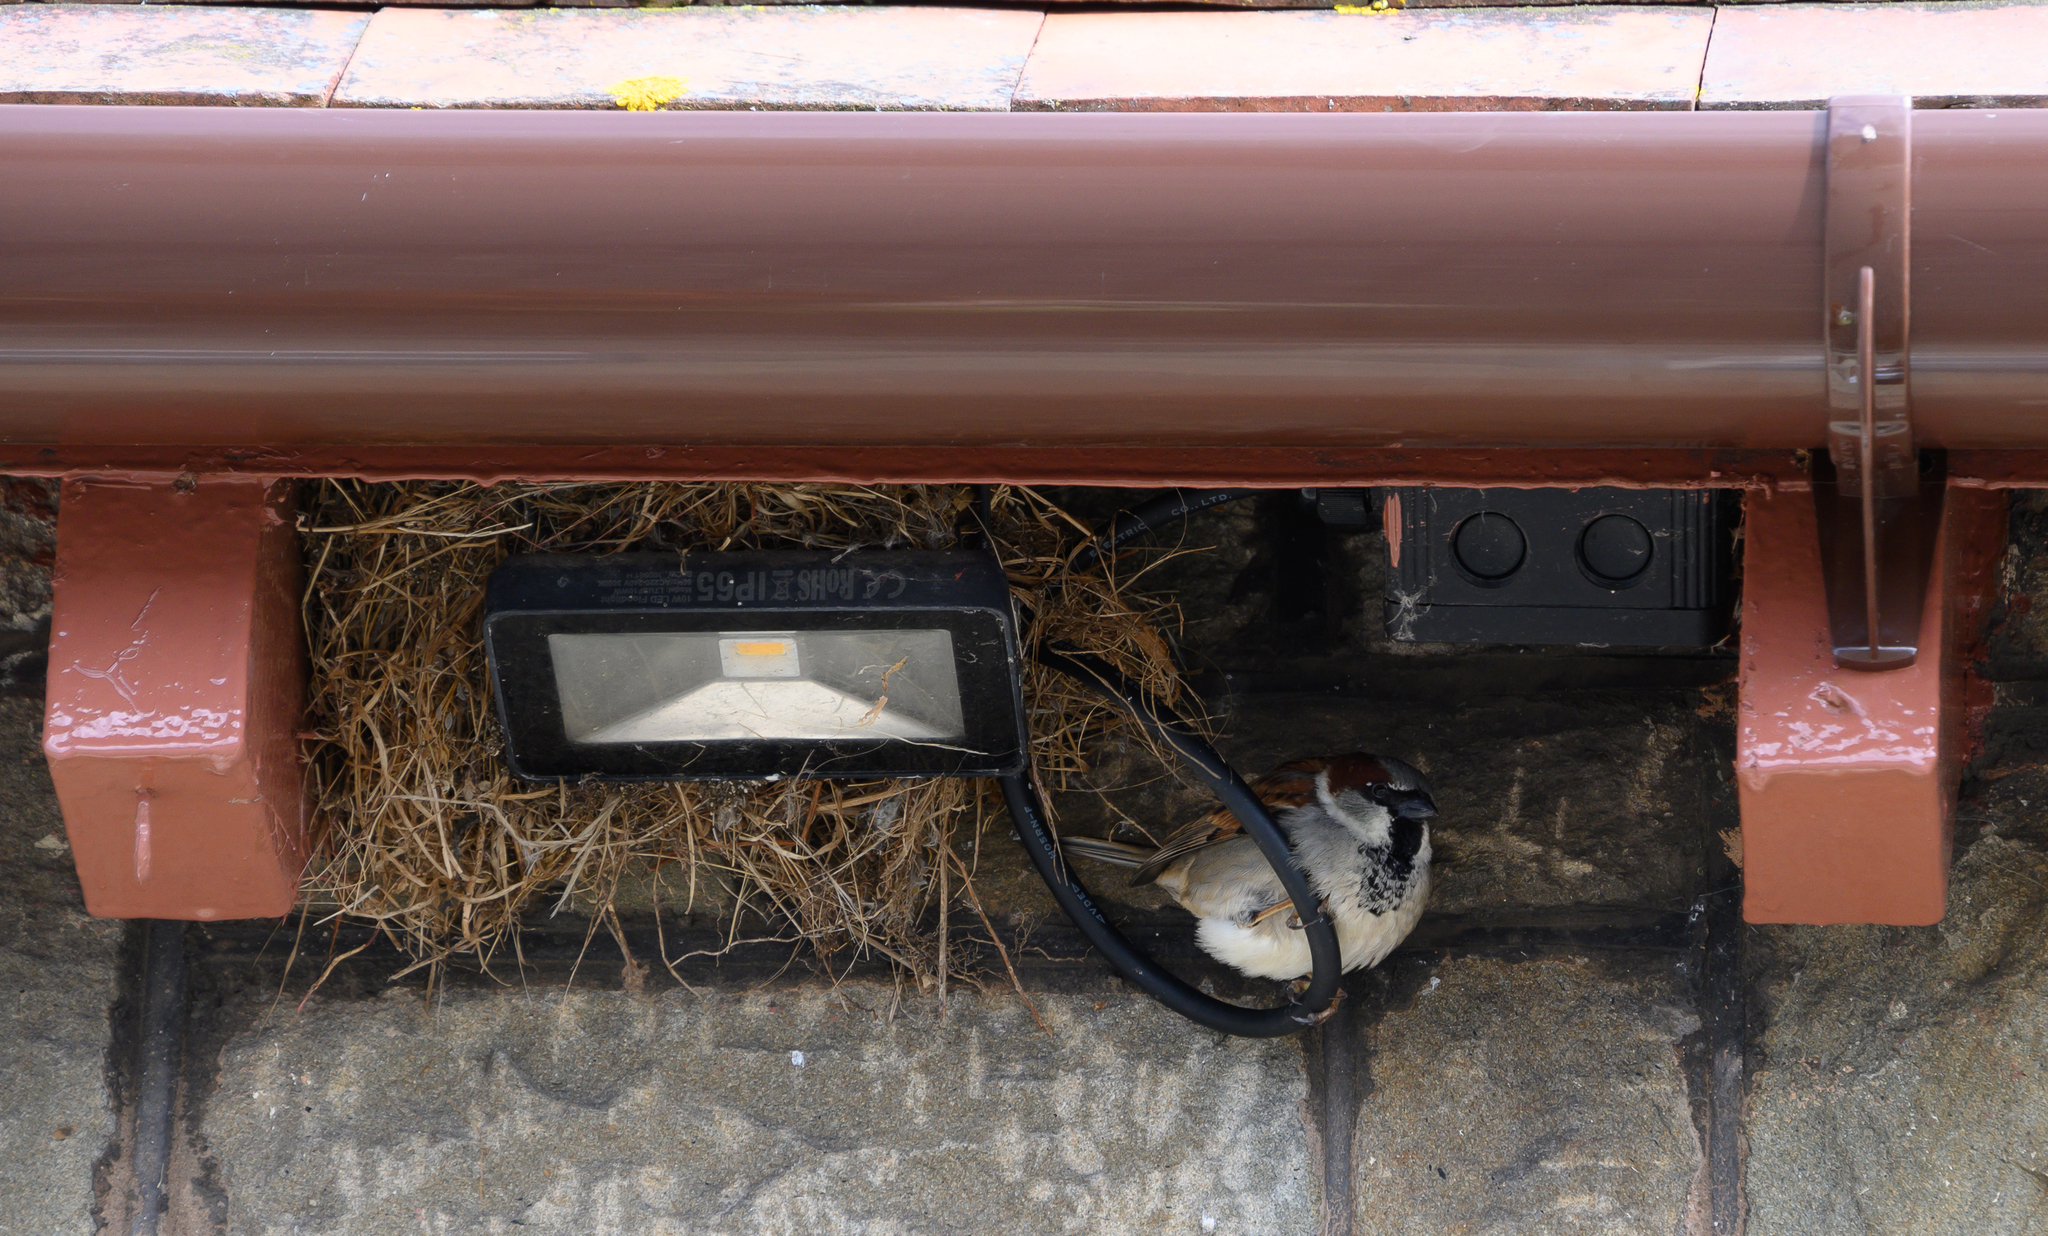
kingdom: Animalia
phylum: Chordata
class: Aves
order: Passeriformes
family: Passeridae
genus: Passer
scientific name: Passer domesticus
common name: House sparrow
